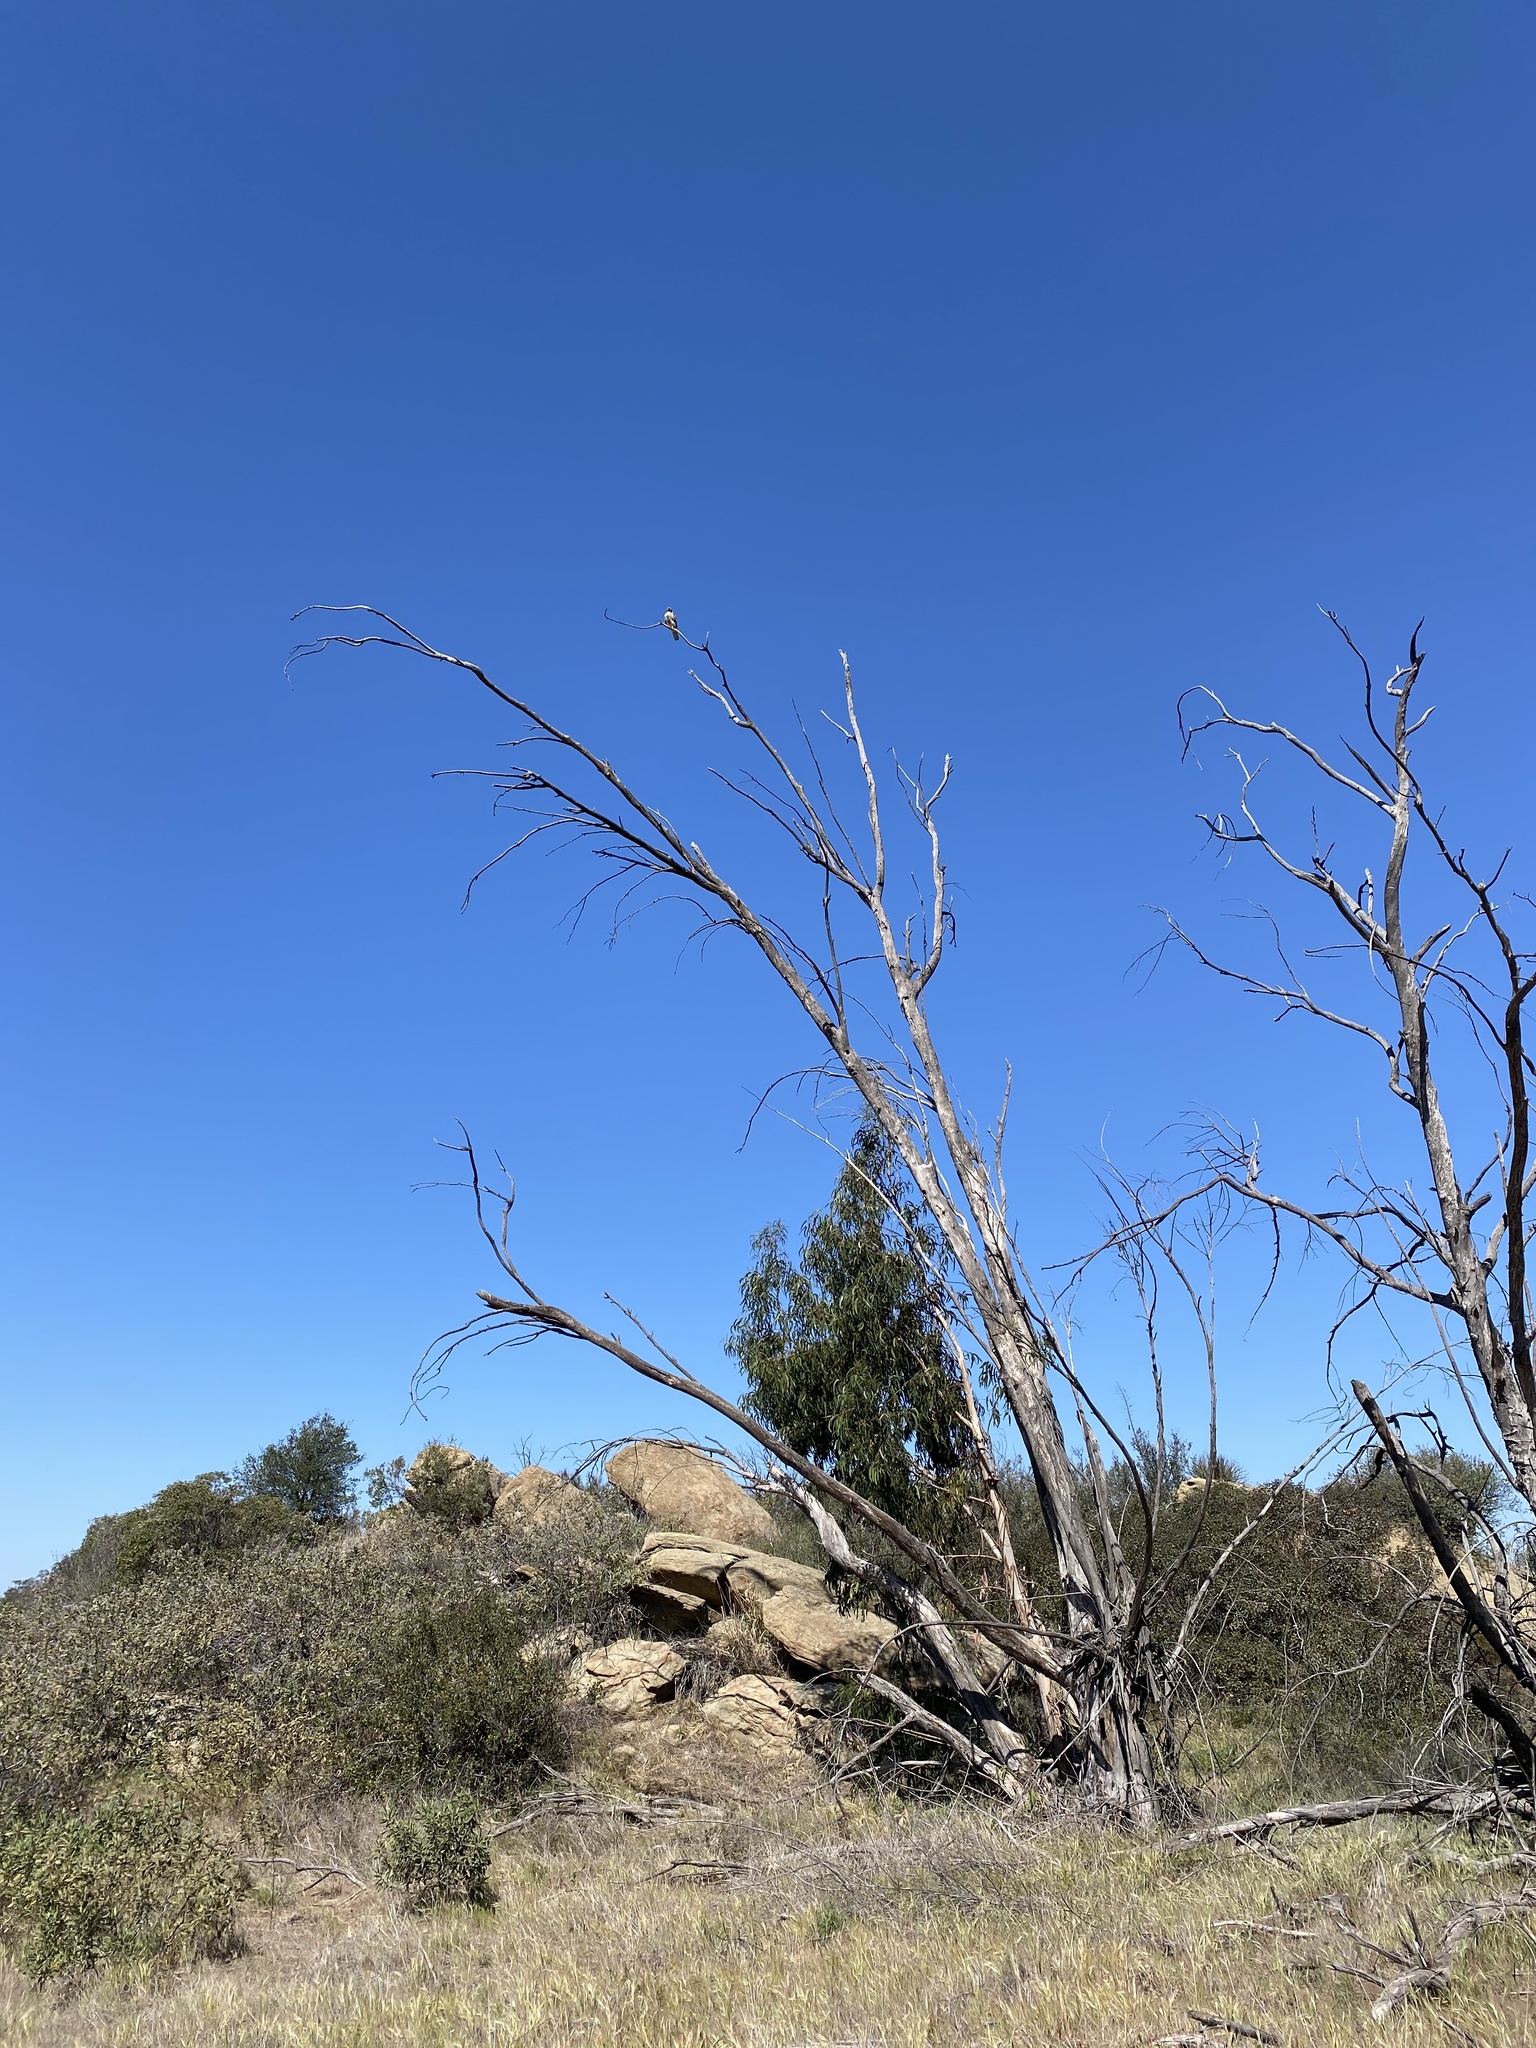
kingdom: Animalia
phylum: Chordata
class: Aves
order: Accipitriformes
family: Accipitridae
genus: Buteo
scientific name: Buteo jamaicensis
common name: Red-tailed hawk
